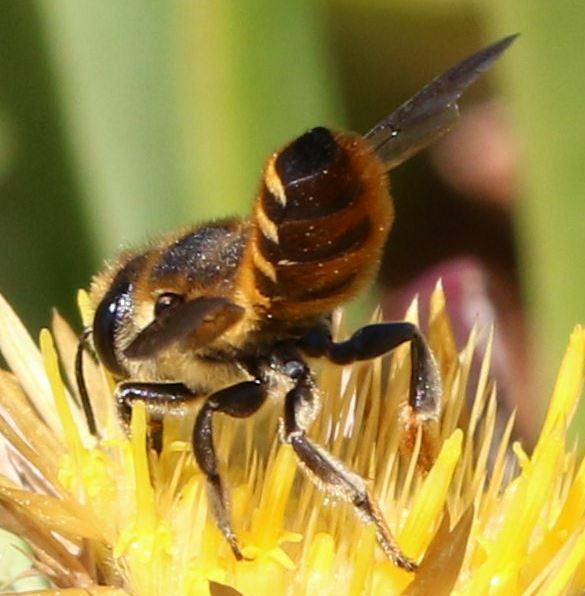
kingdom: Animalia
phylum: Arthropoda
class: Insecta
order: Hymenoptera
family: Megachilidae
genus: Megachile
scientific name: Megachile melanopyga
